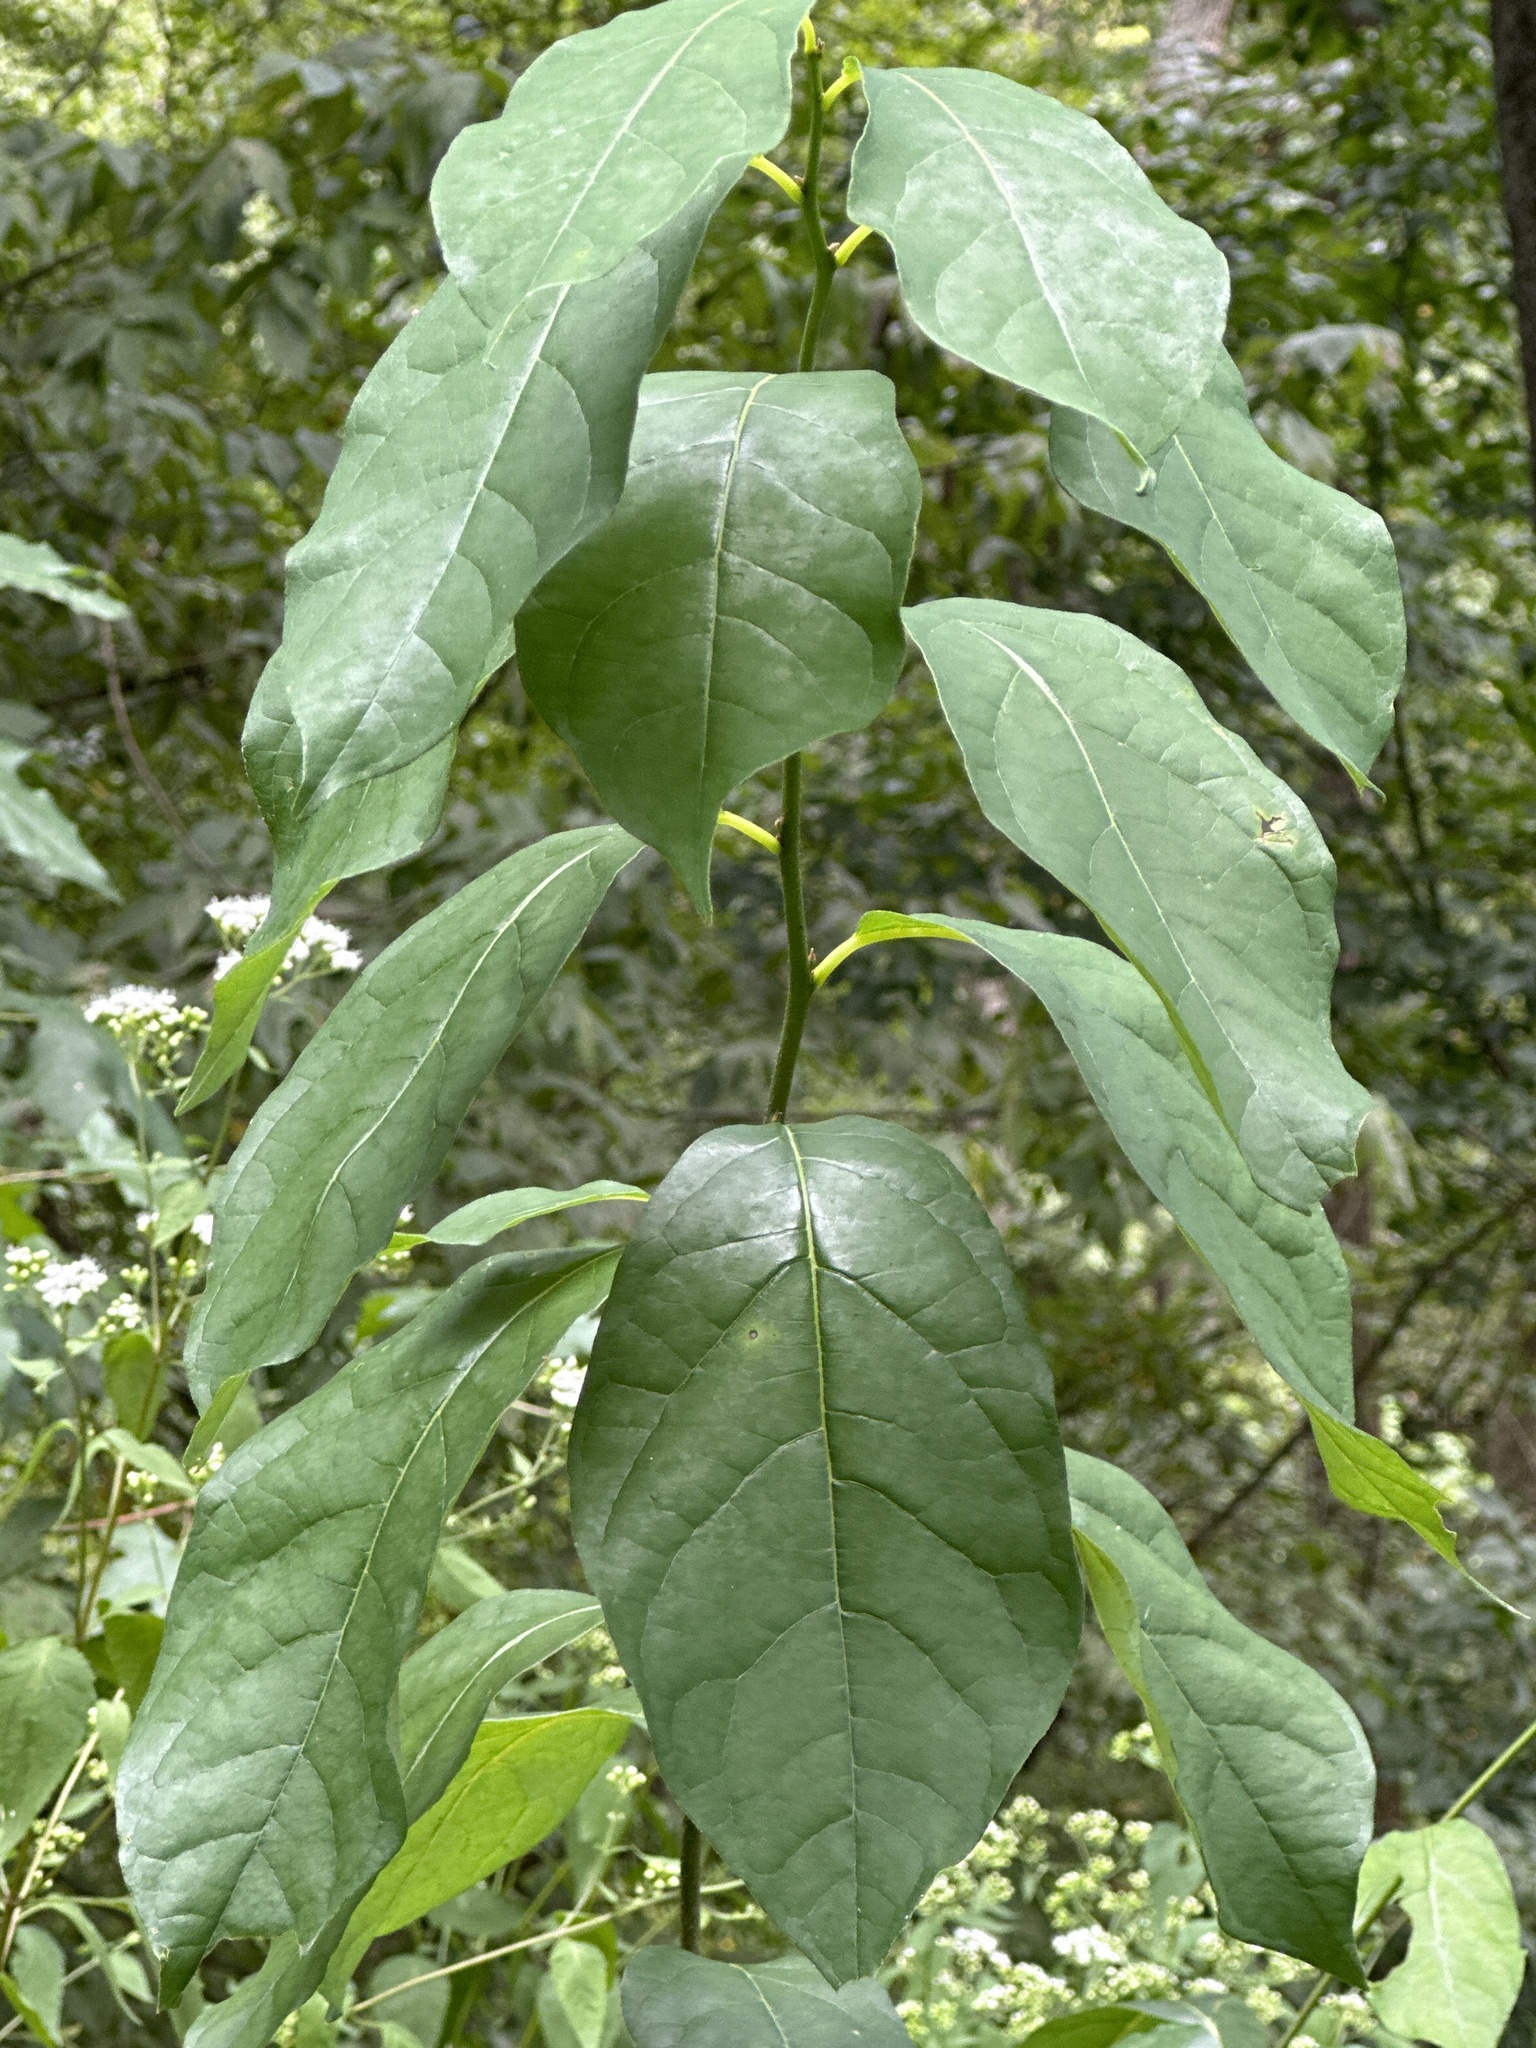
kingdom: Plantae
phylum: Tracheophyta
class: Magnoliopsida
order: Laurales
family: Lauraceae
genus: Lindera
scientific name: Lindera benzoin
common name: Spicebush
